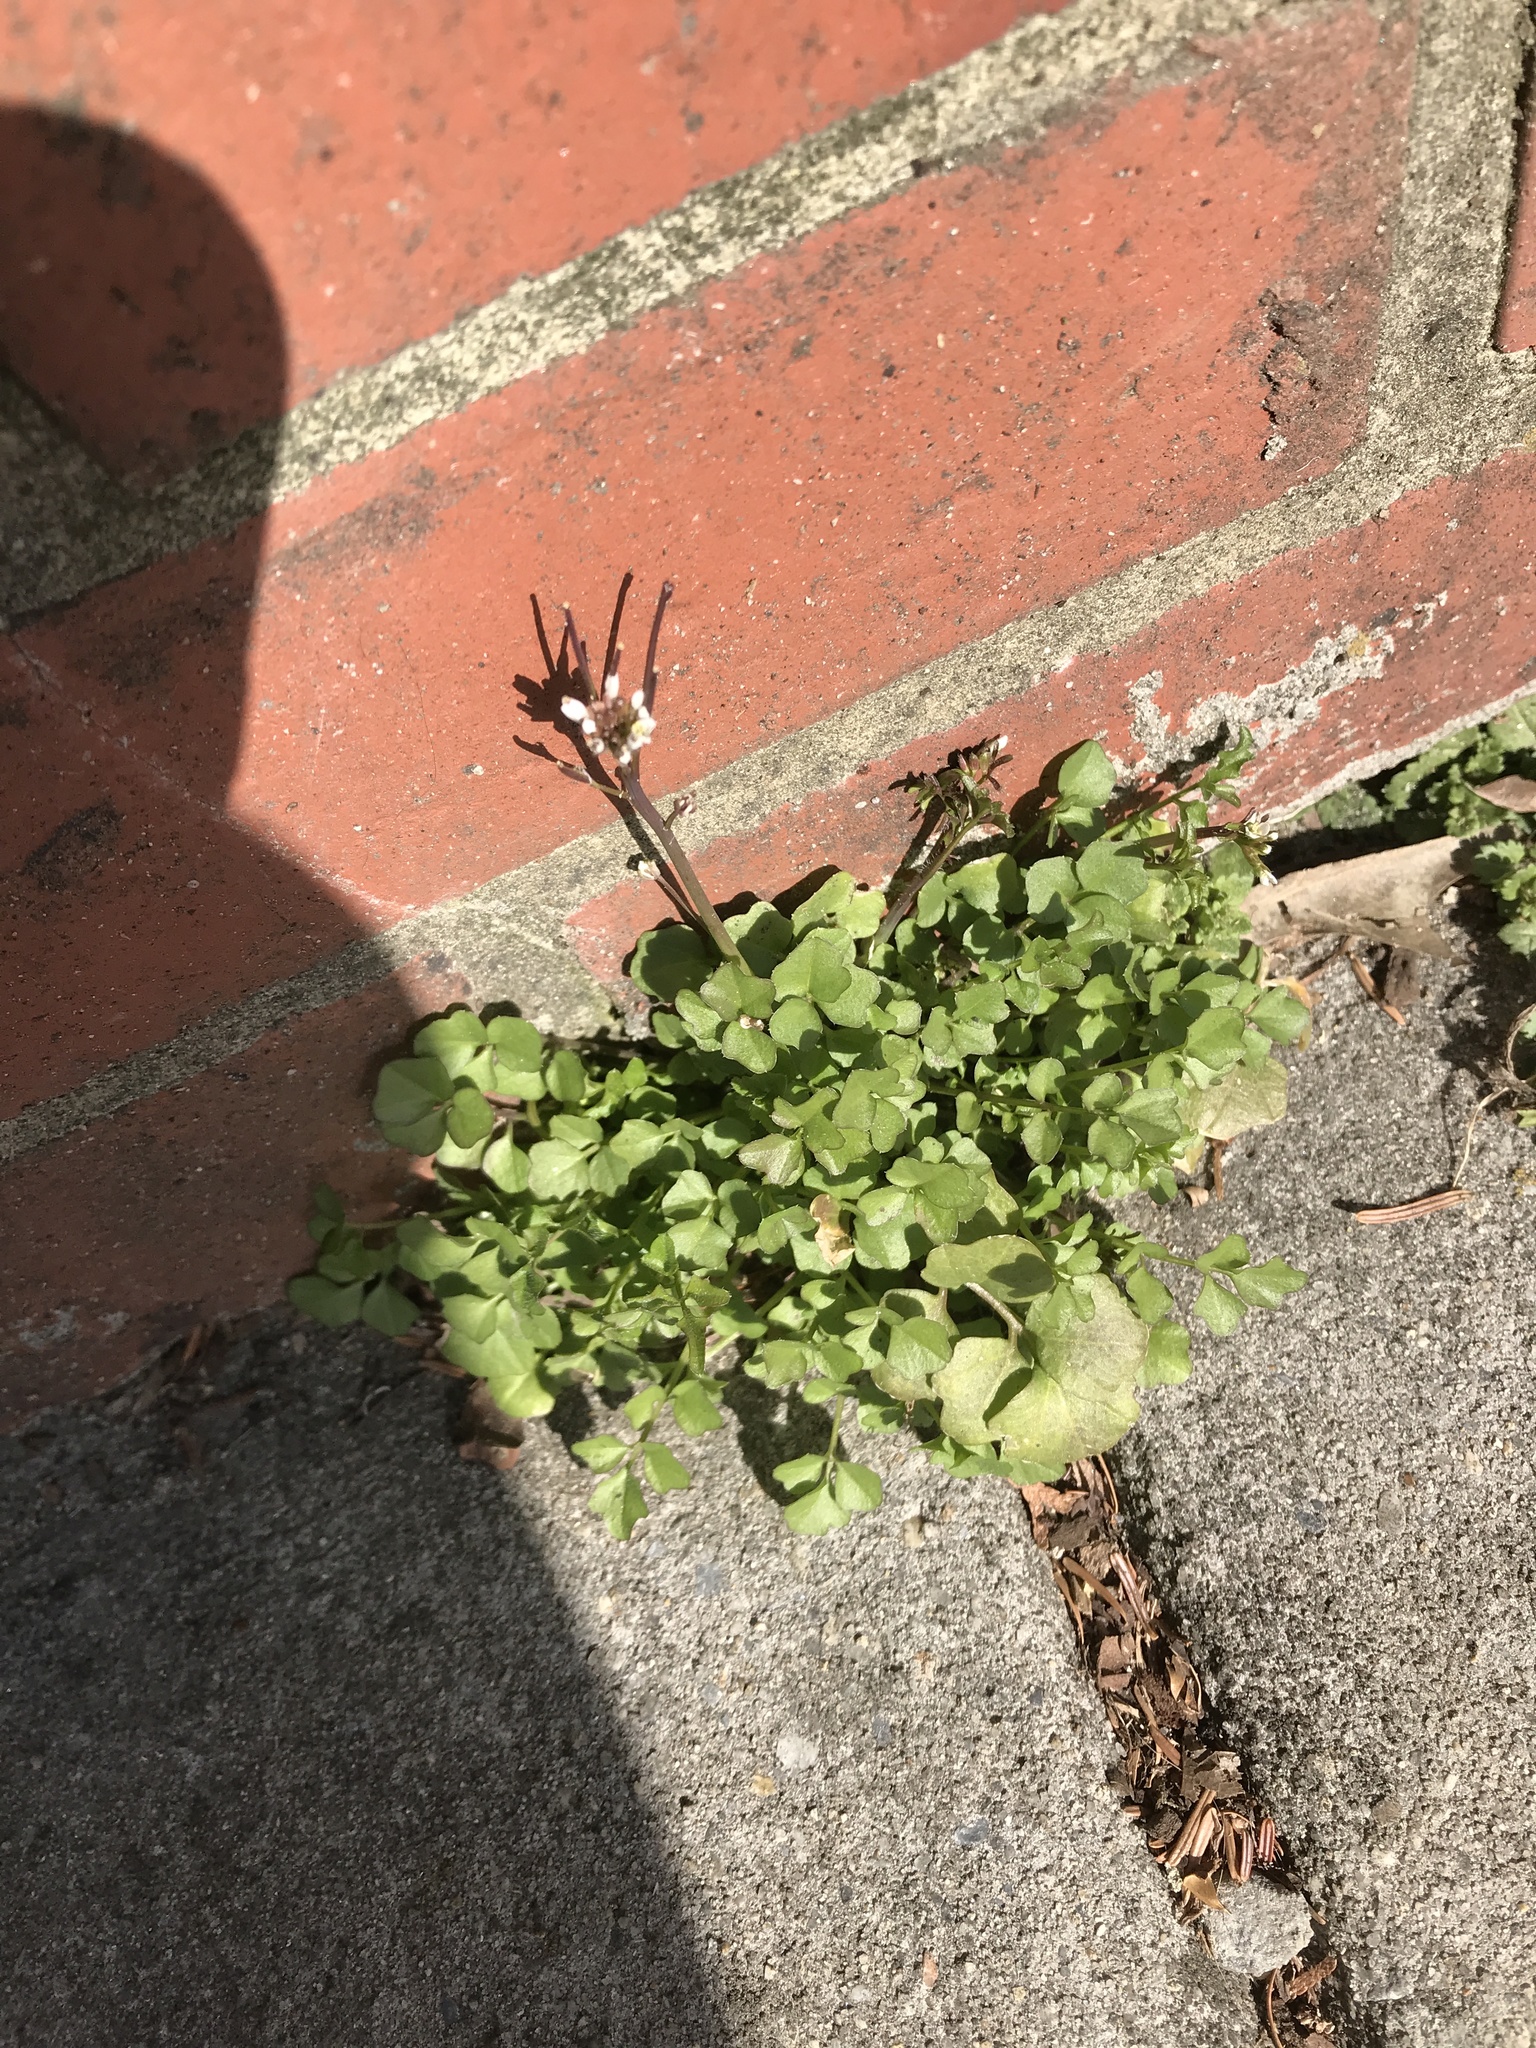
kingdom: Plantae
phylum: Tracheophyta
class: Magnoliopsida
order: Brassicales
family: Brassicaceae
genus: Cardamine
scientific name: Cardamine hirsuta
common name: Hairy bittercress
